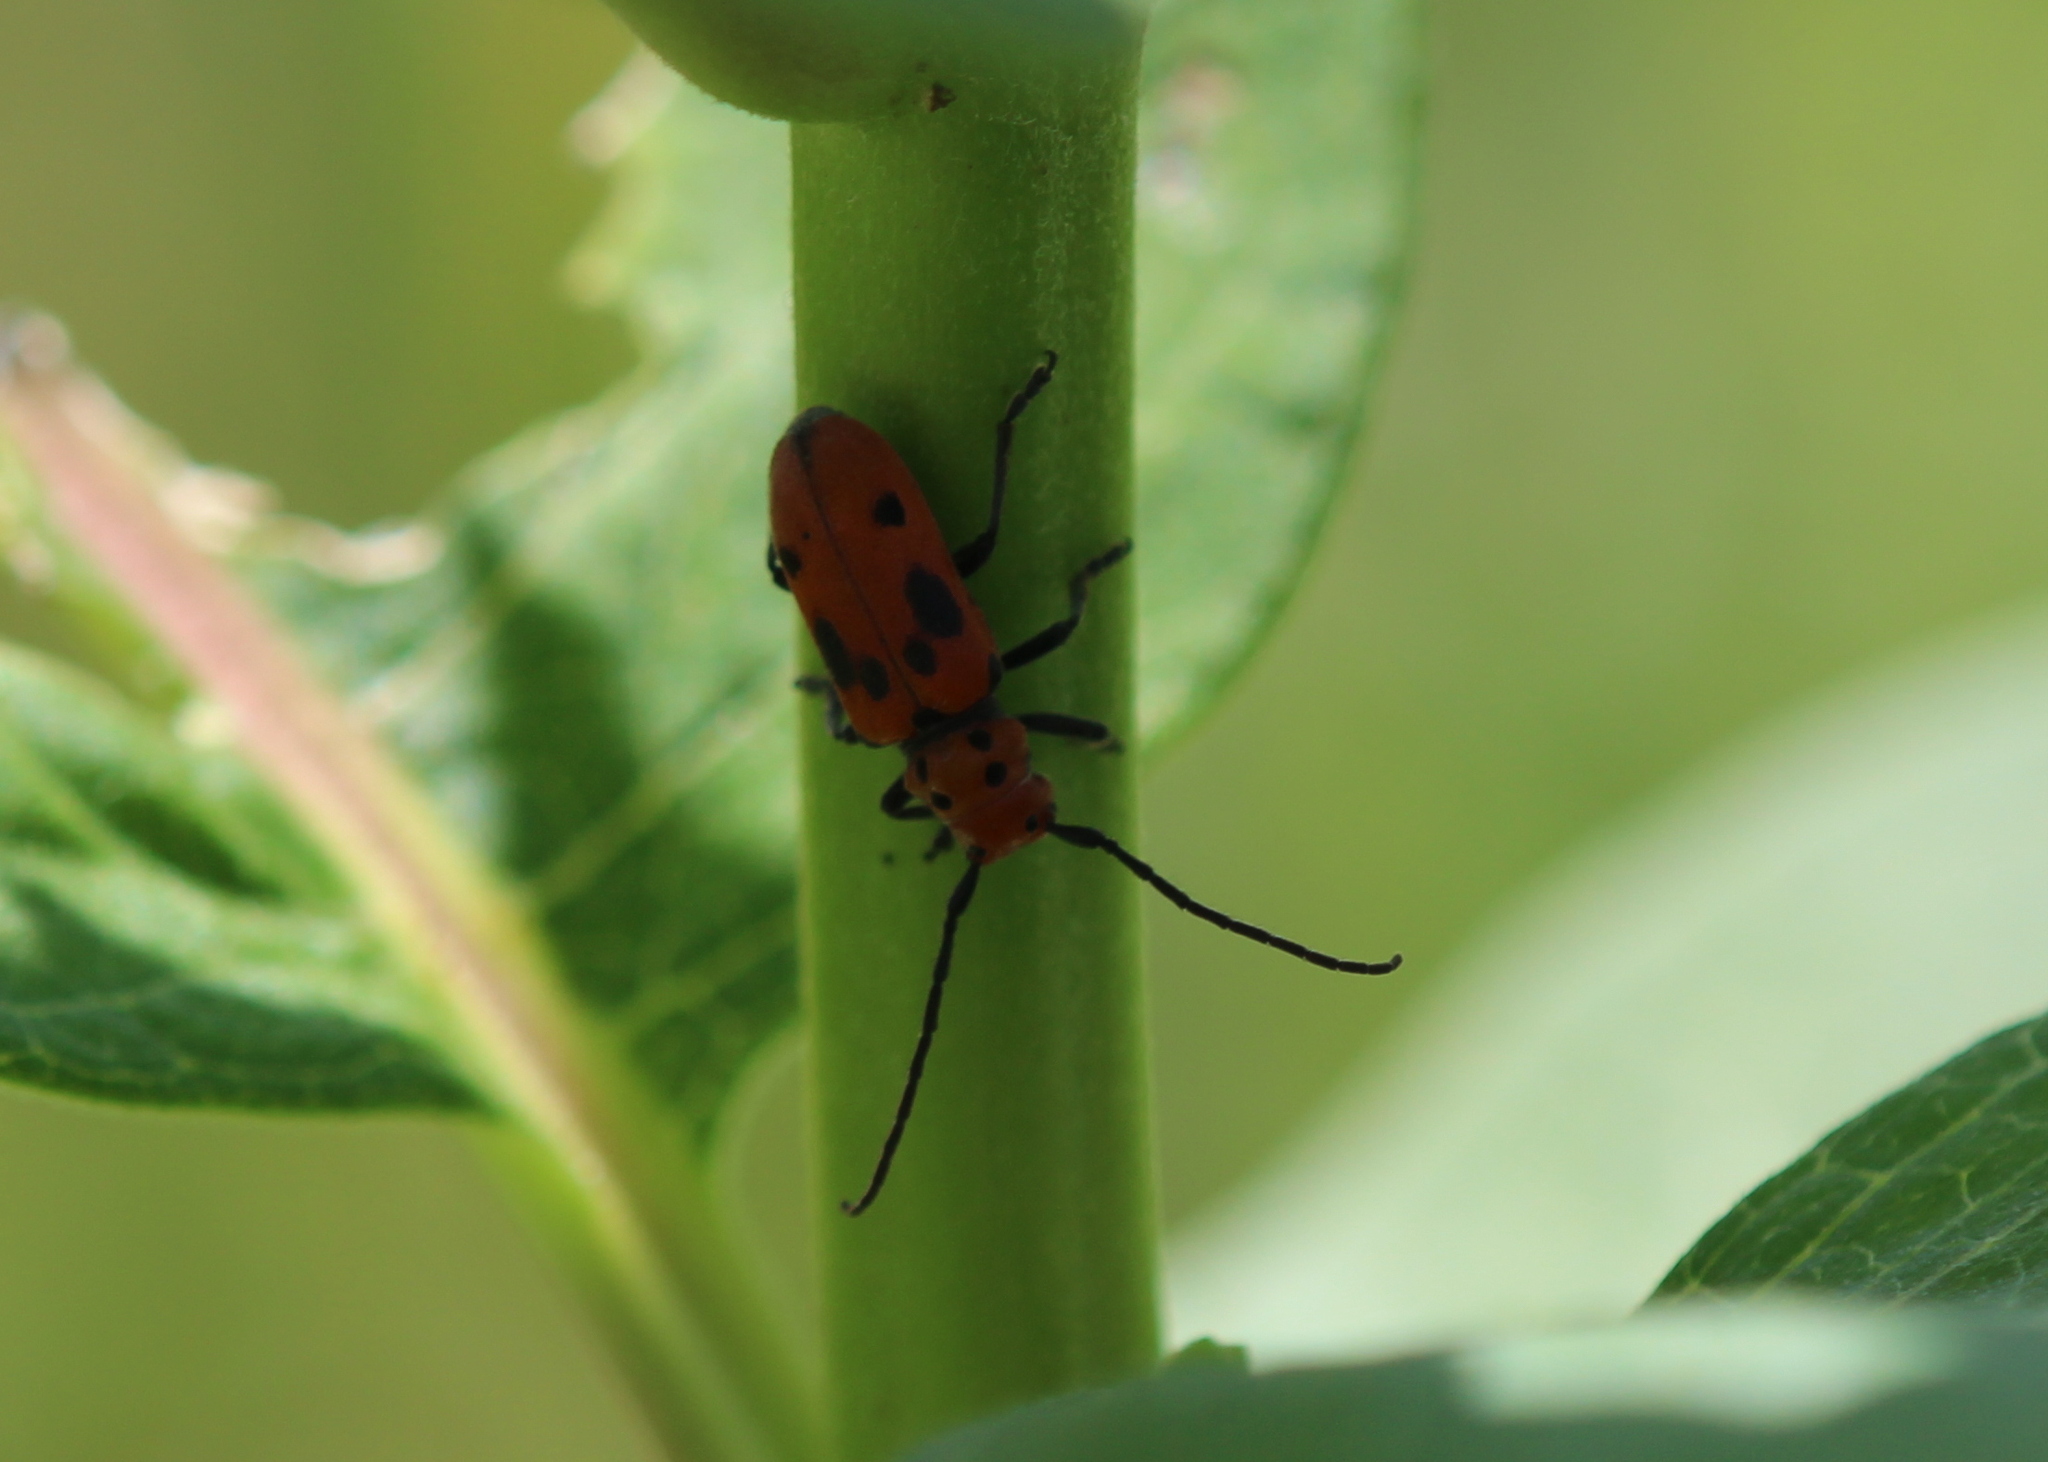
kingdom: Animalia
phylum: Arthropoda
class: Insecta
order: Coleoptera
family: Cerambycidae
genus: Tetraopes
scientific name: Tetraopes tetrophthalmus
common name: Red milkweed beetle
